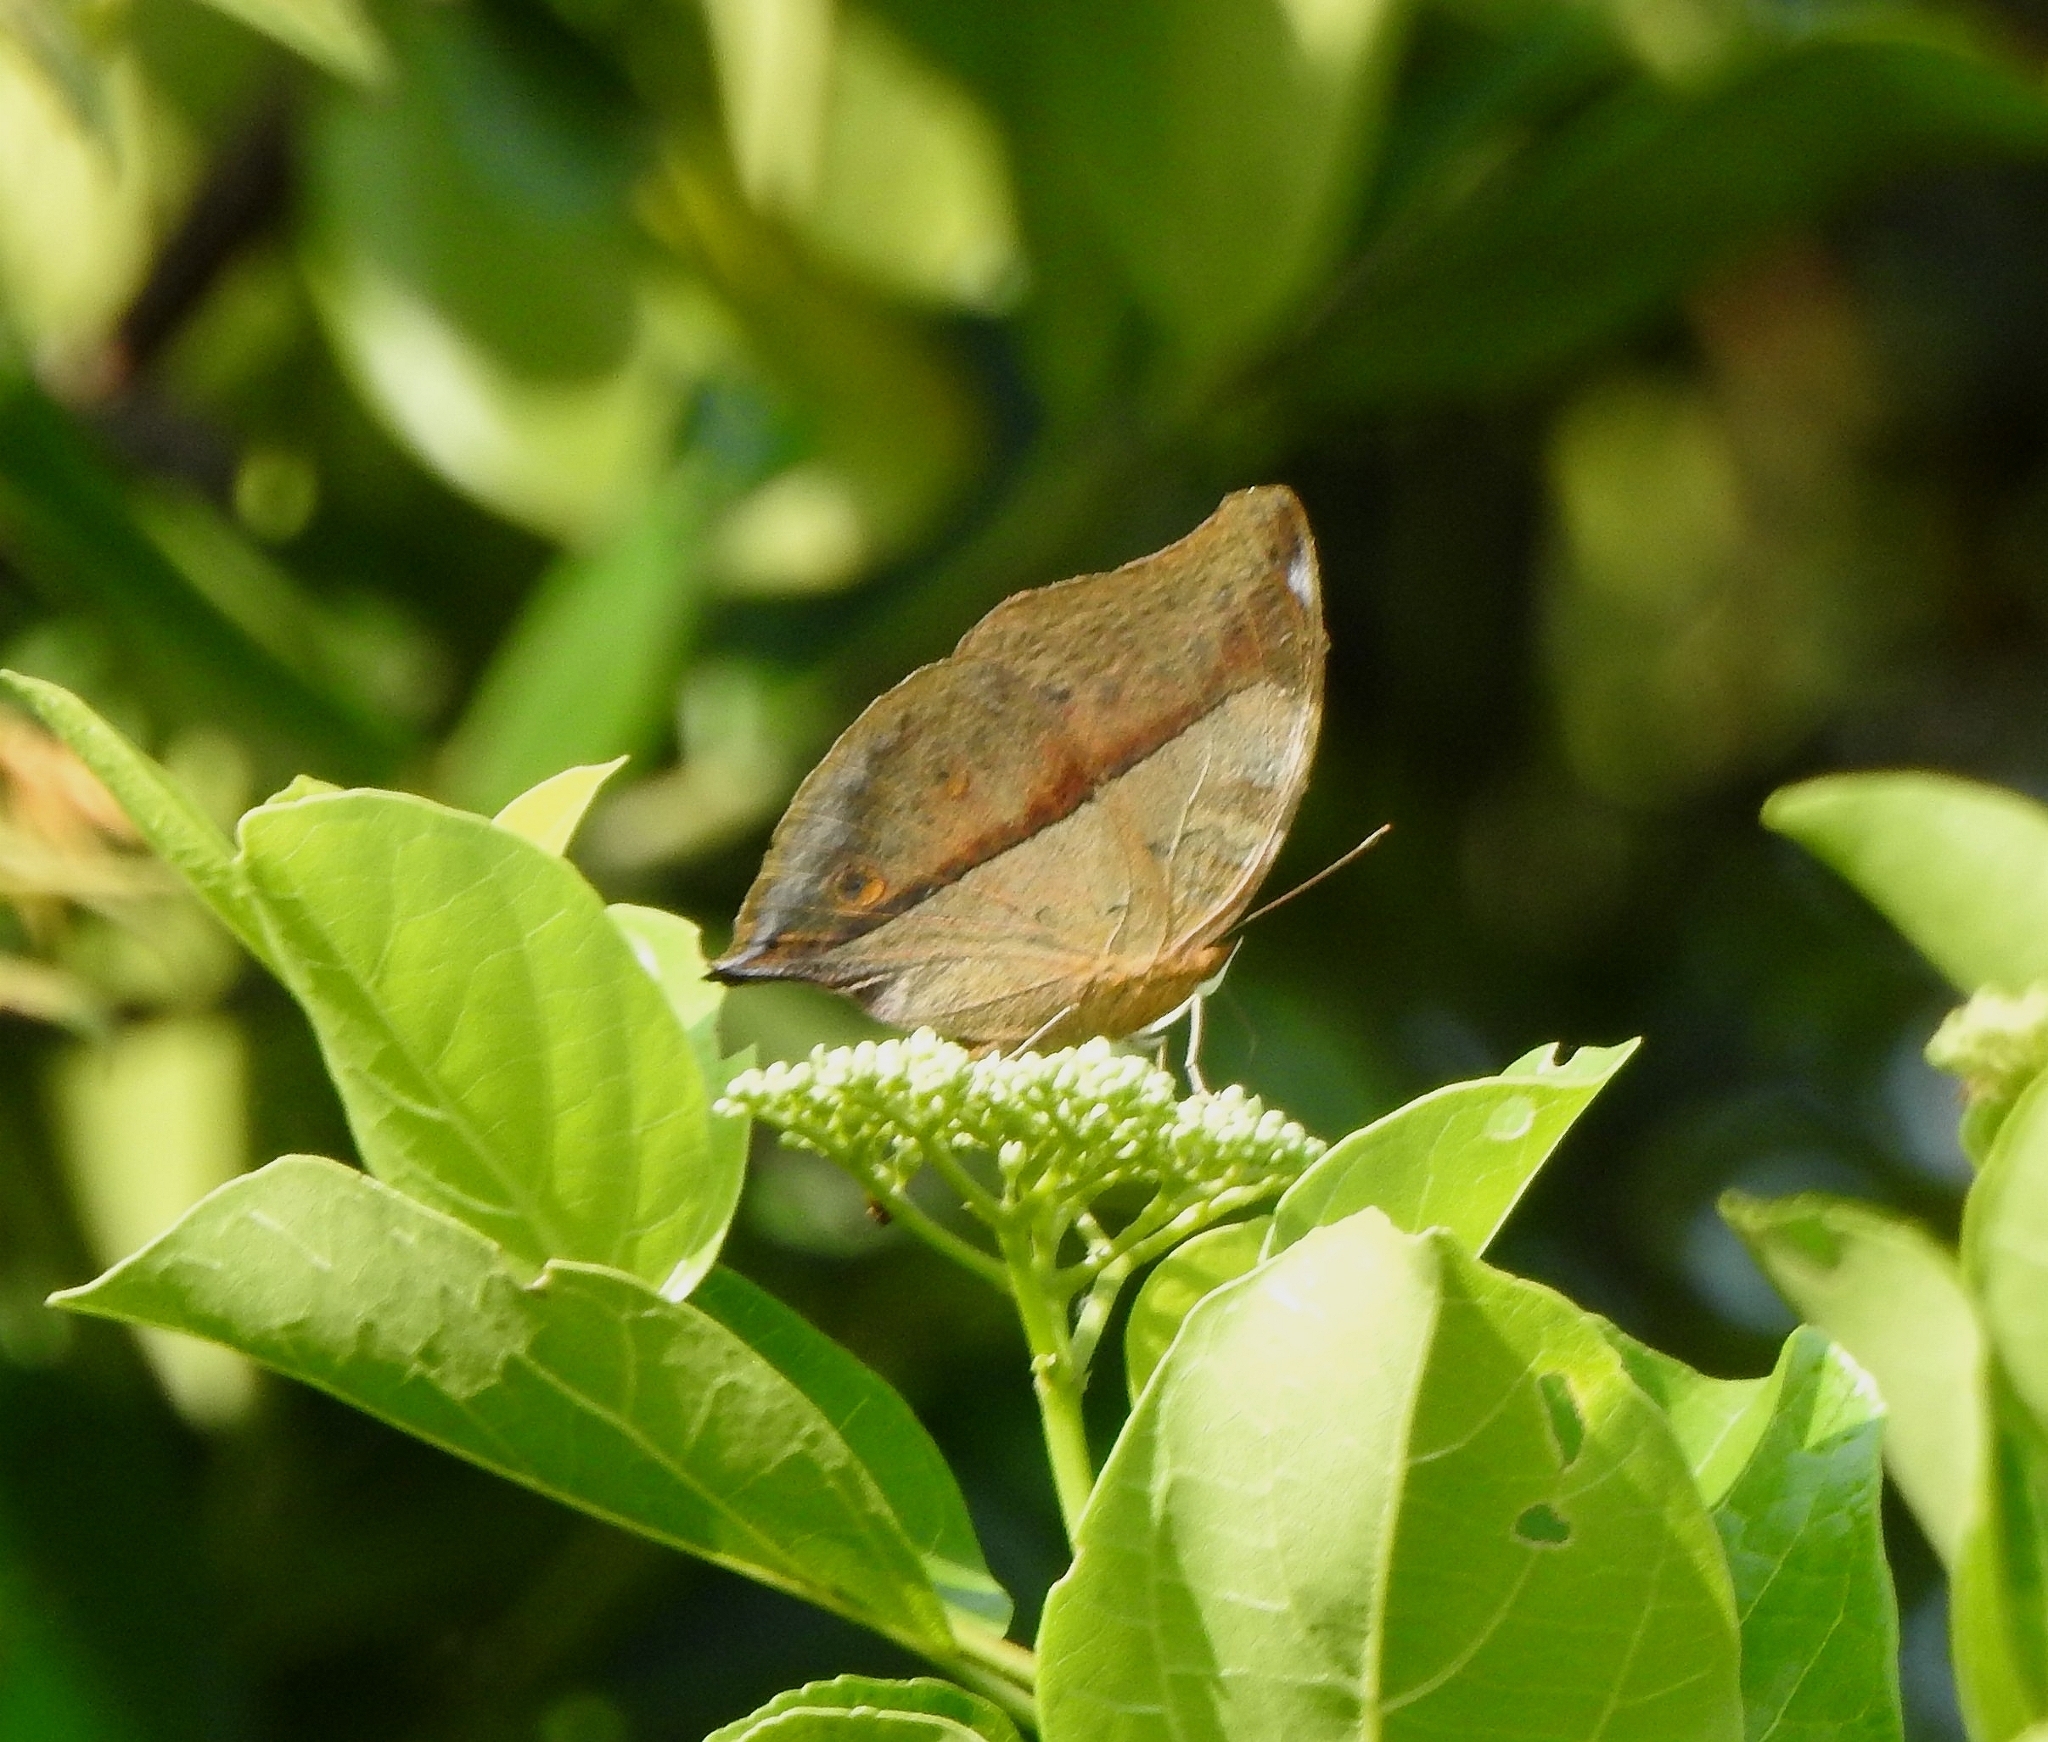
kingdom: Animalia
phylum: Arthropoda
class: Insecta
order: Lepidoptera
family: Nymphalidae
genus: Doleschallia
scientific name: Doleschallia bisaltide
